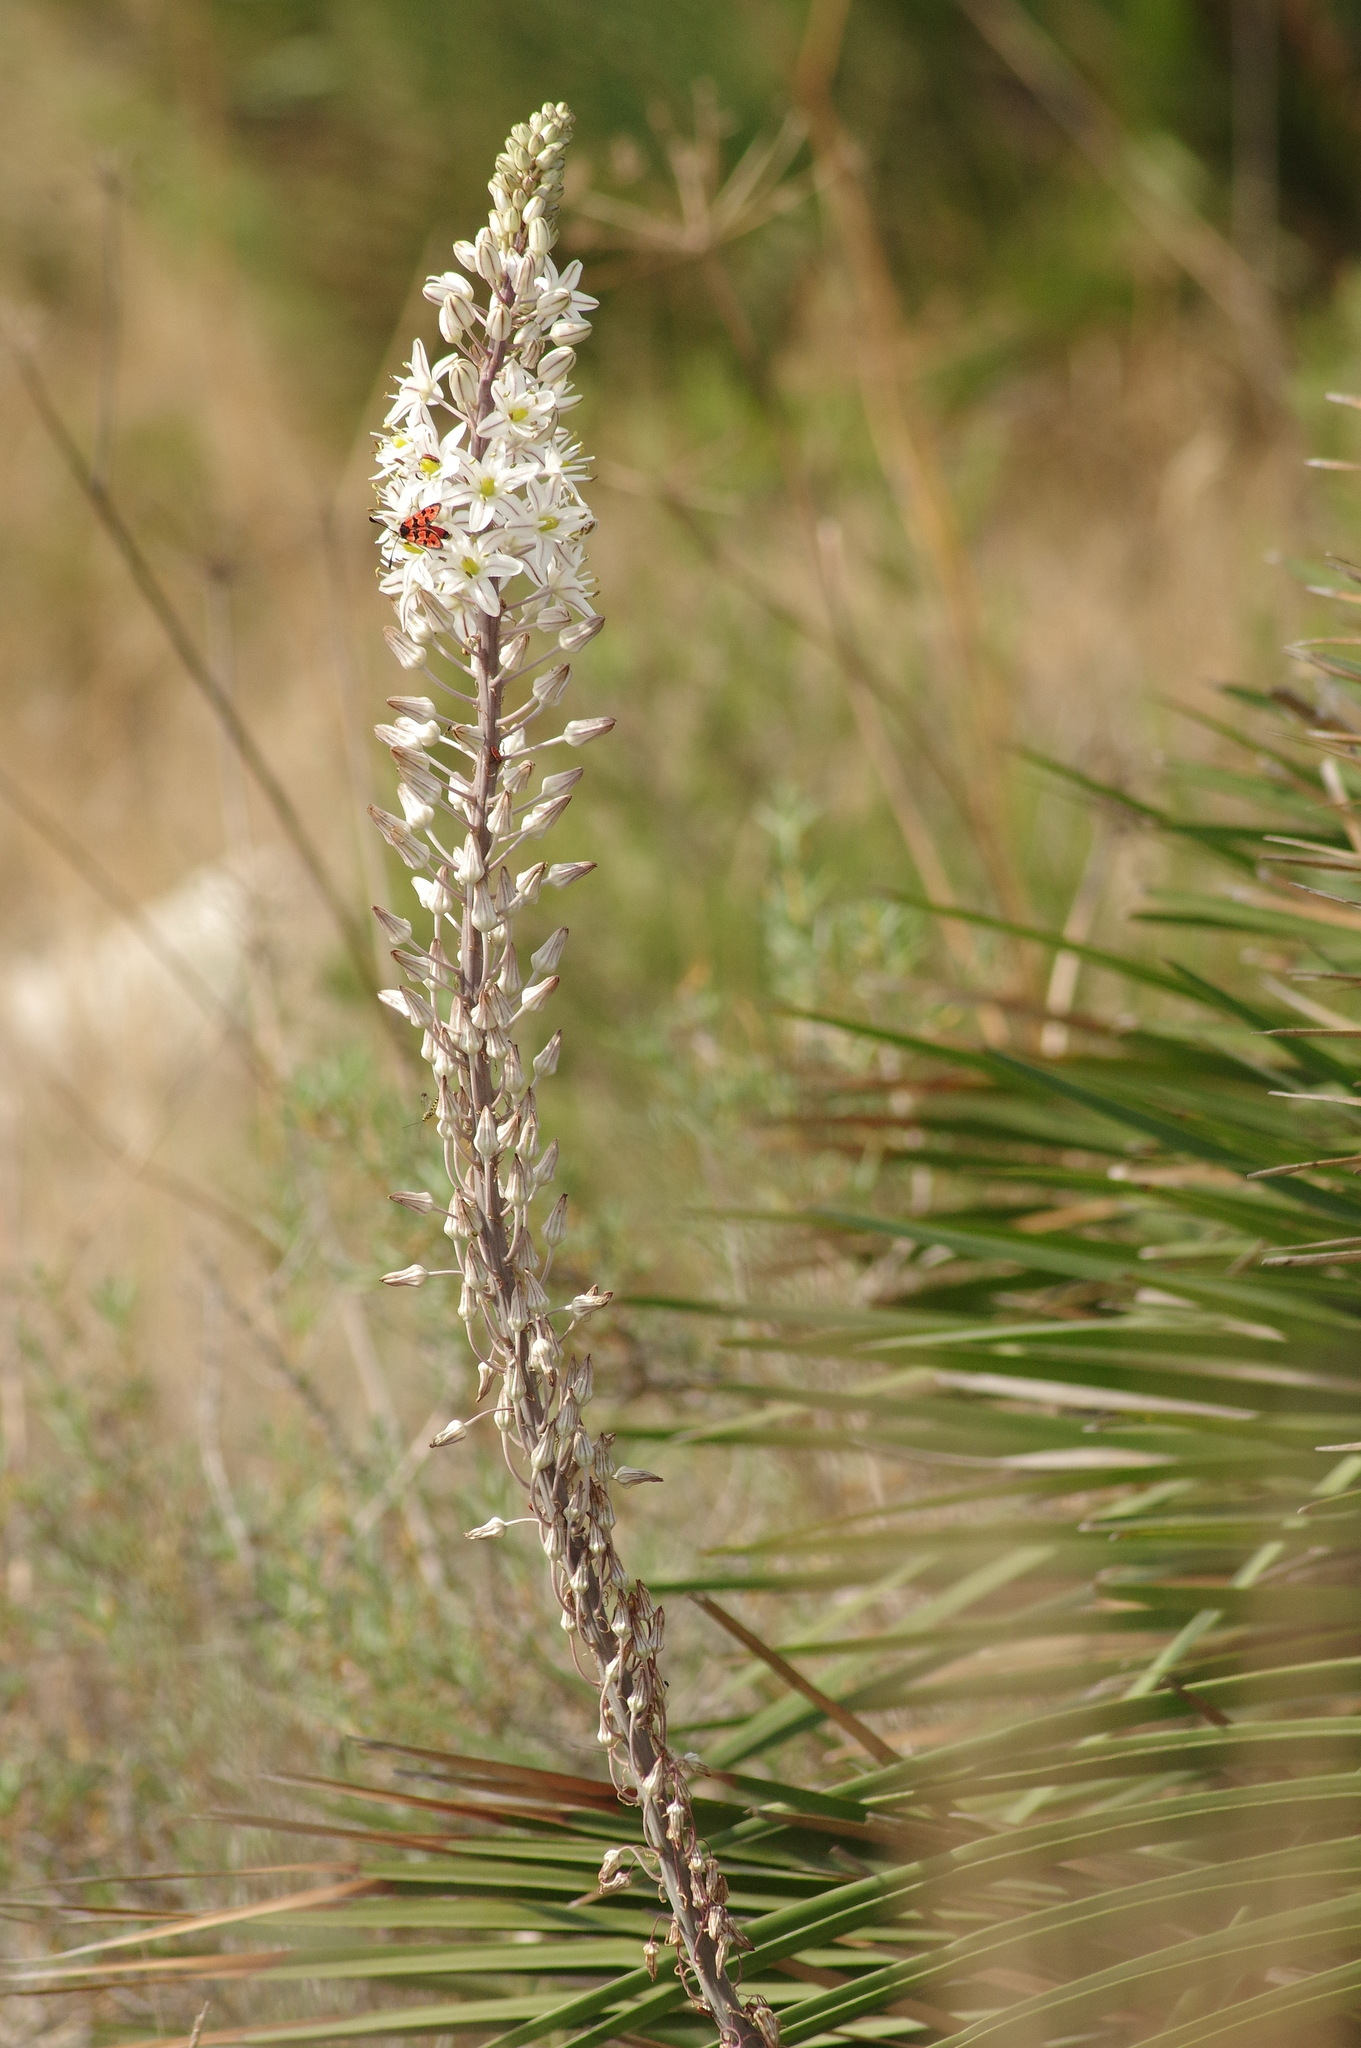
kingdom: Plantae
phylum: Tracheophyta
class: Liliopsida
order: Asparagales
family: Asparagaceae
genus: Drimia
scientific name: Drimia maritima
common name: Maritime squill
